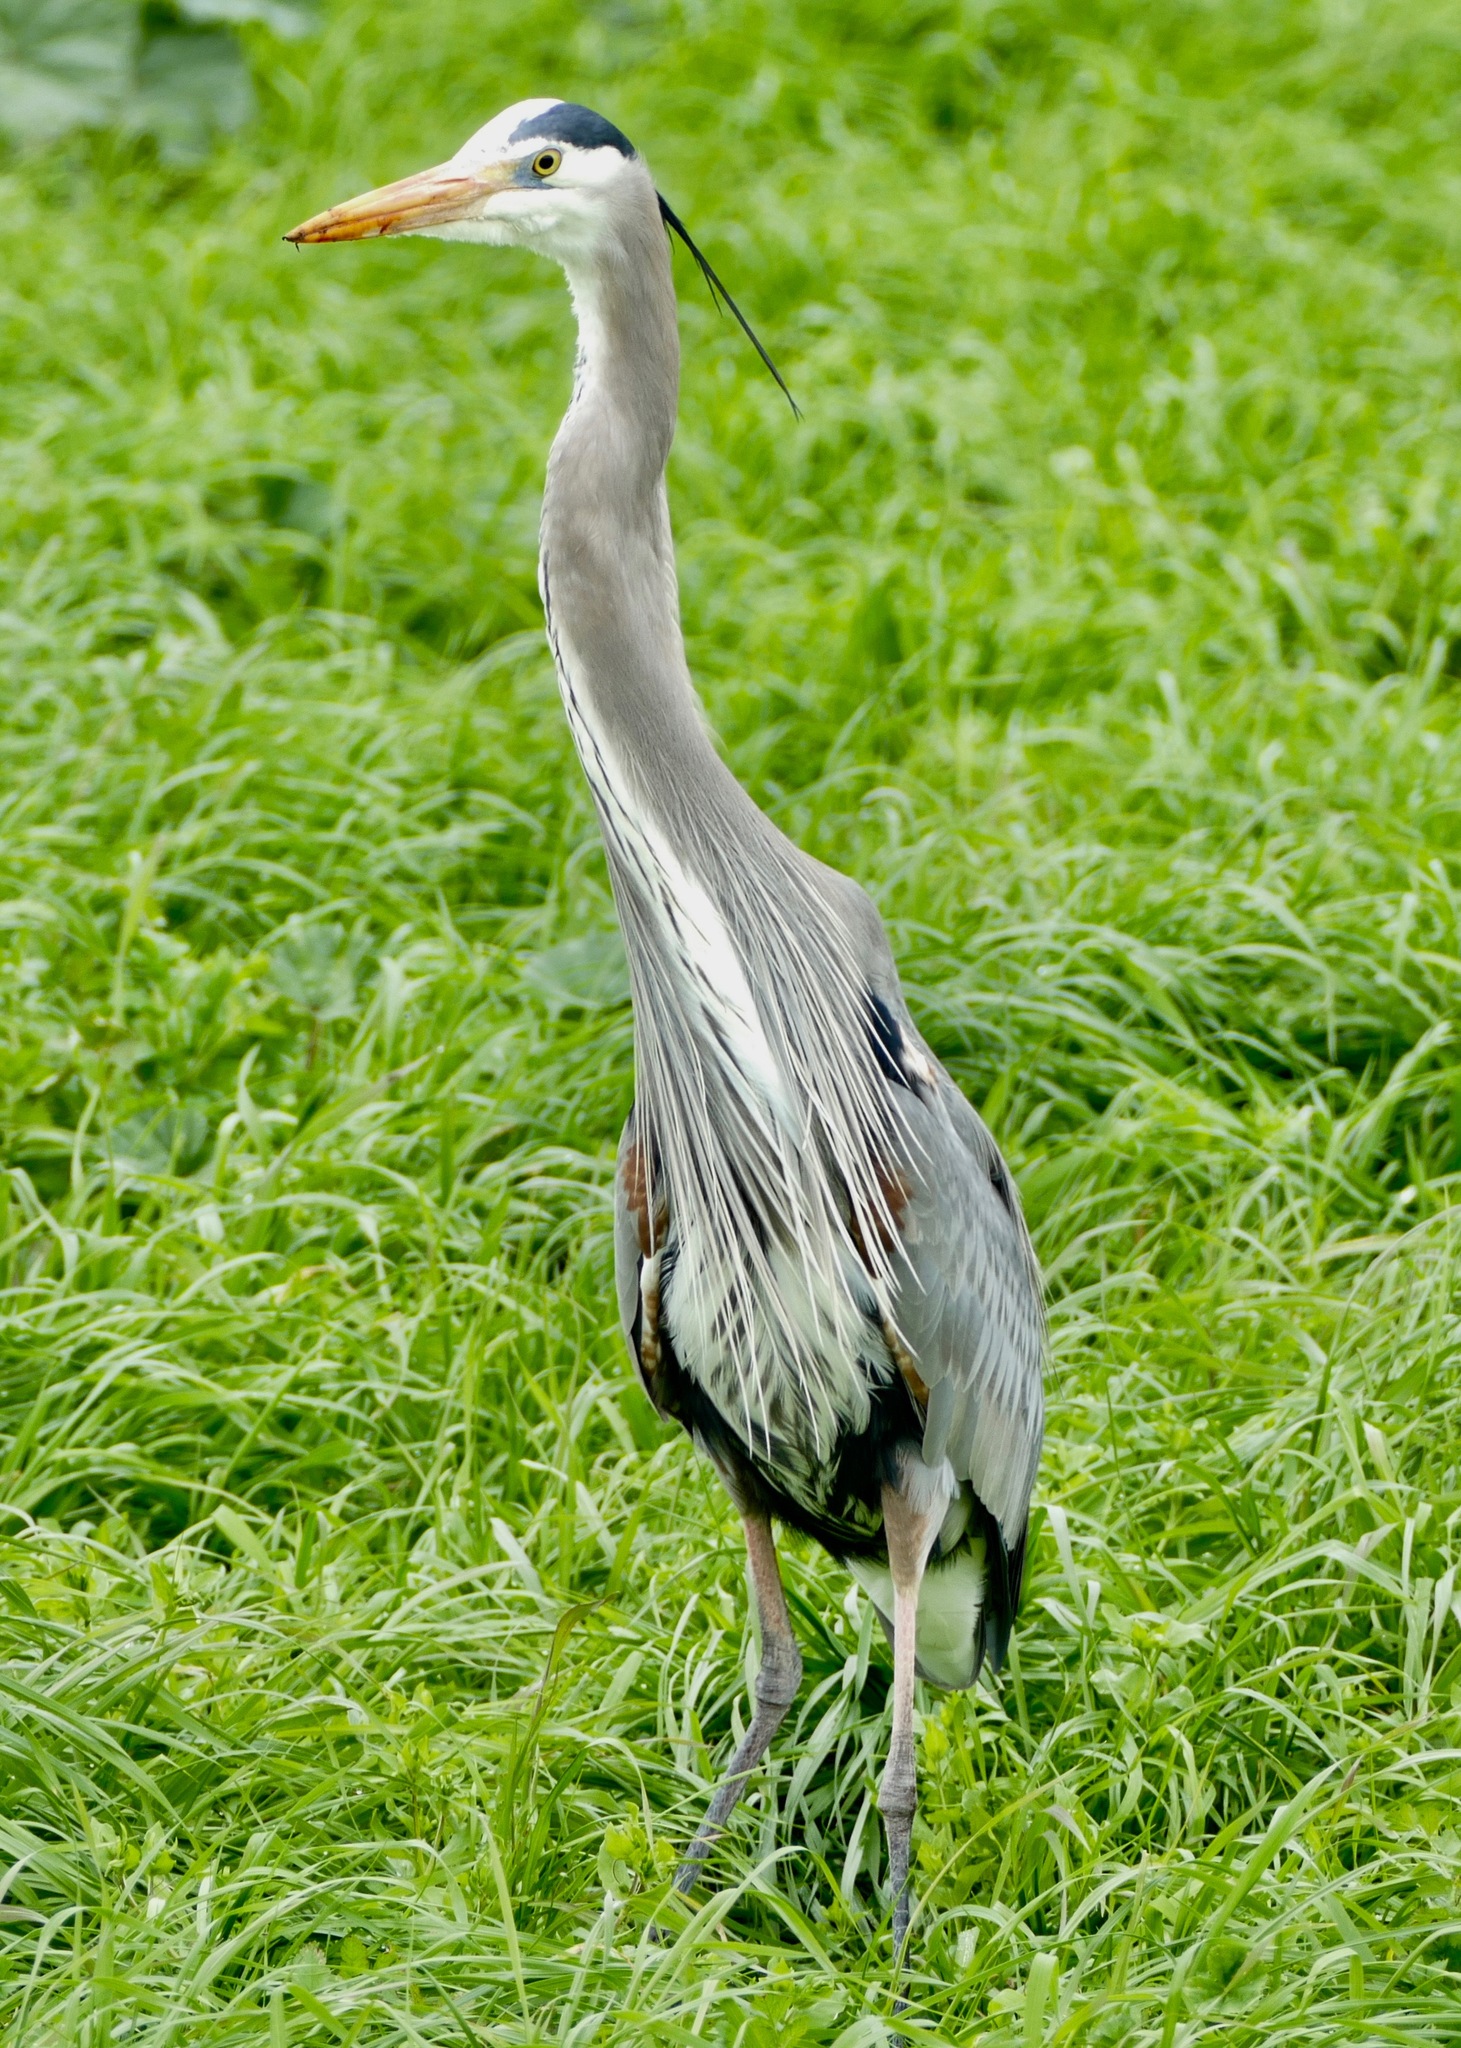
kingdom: Animalia
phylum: Chordata
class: Aves
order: Pelecaniformes
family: Ardeidae
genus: Ardea
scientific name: Ardea herodias
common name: Great blue heron
